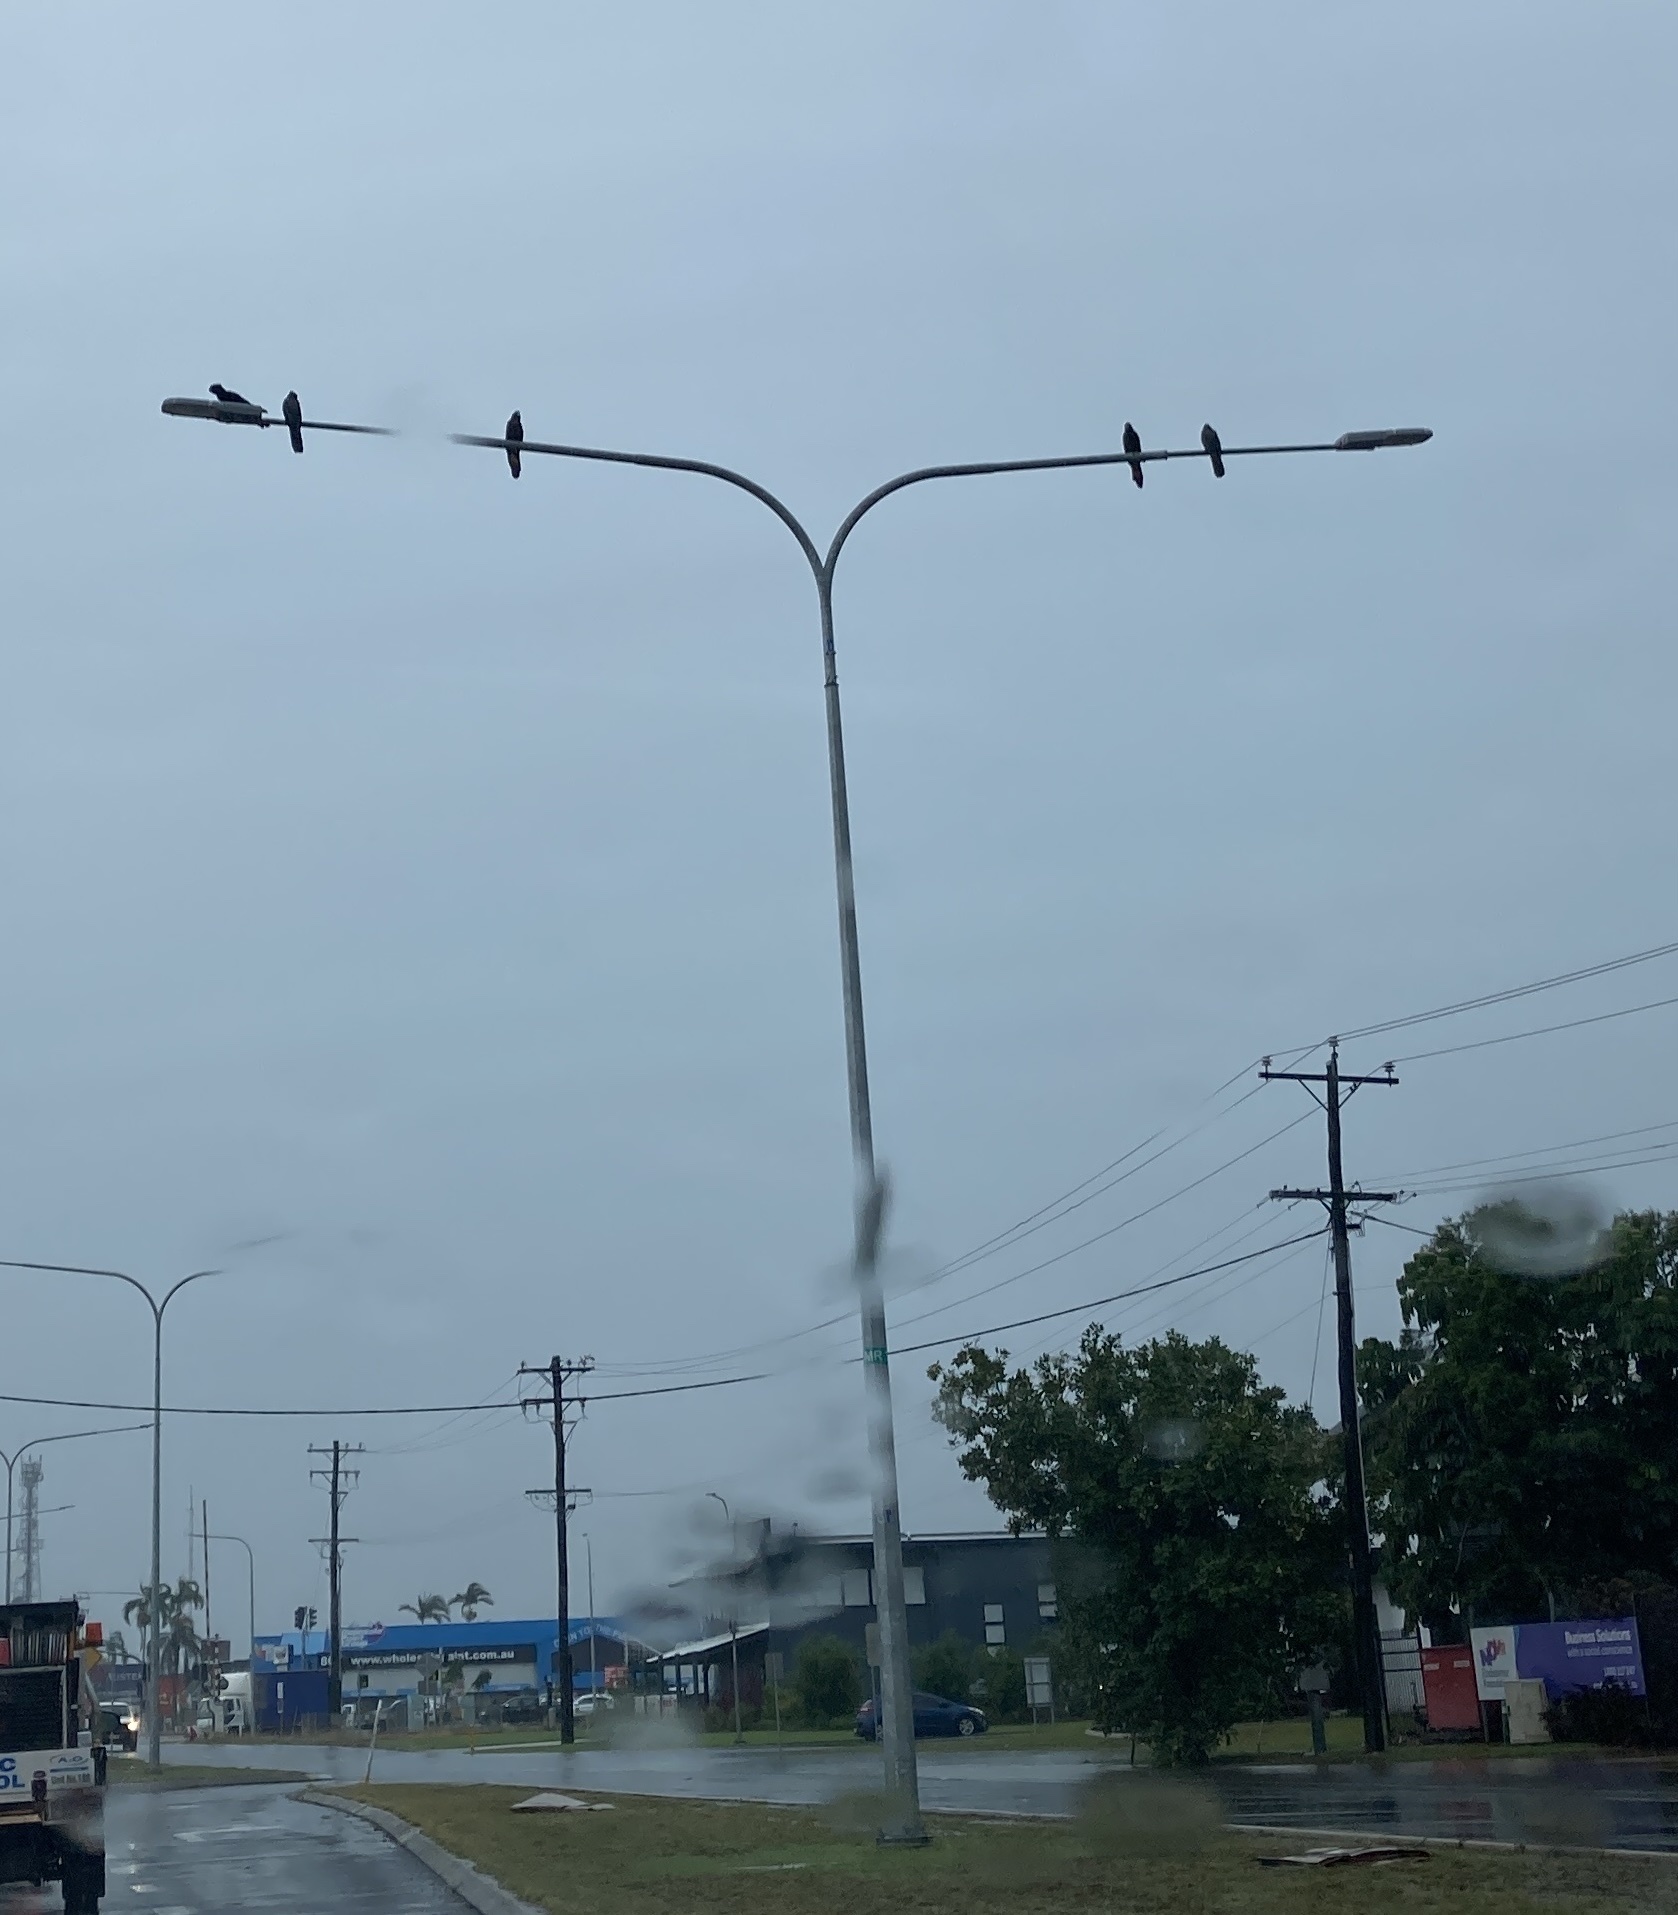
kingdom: Animalia
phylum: Chordata
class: Aves
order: Psittaciformes
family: Psittacidae
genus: Calyptorhynchus
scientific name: Calyptorhynchus banksii
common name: Red-tailed black cockatoo
